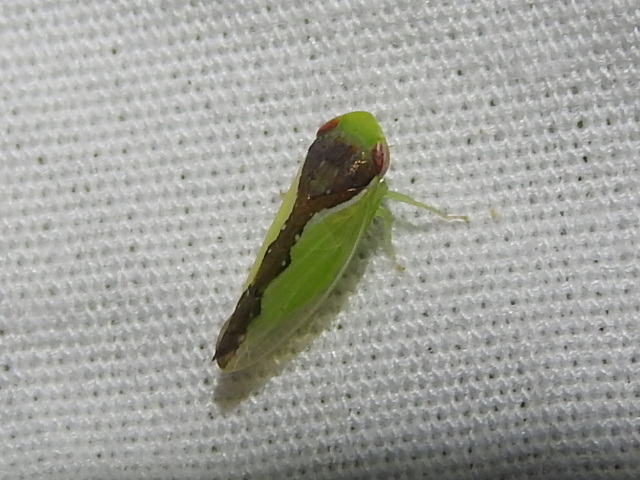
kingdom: Animalia
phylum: Arthropoda
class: Insecta
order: Hemiptera
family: Cicadellidae
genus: Omansobara ing
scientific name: Omansobara ing Omansobara palliolata
